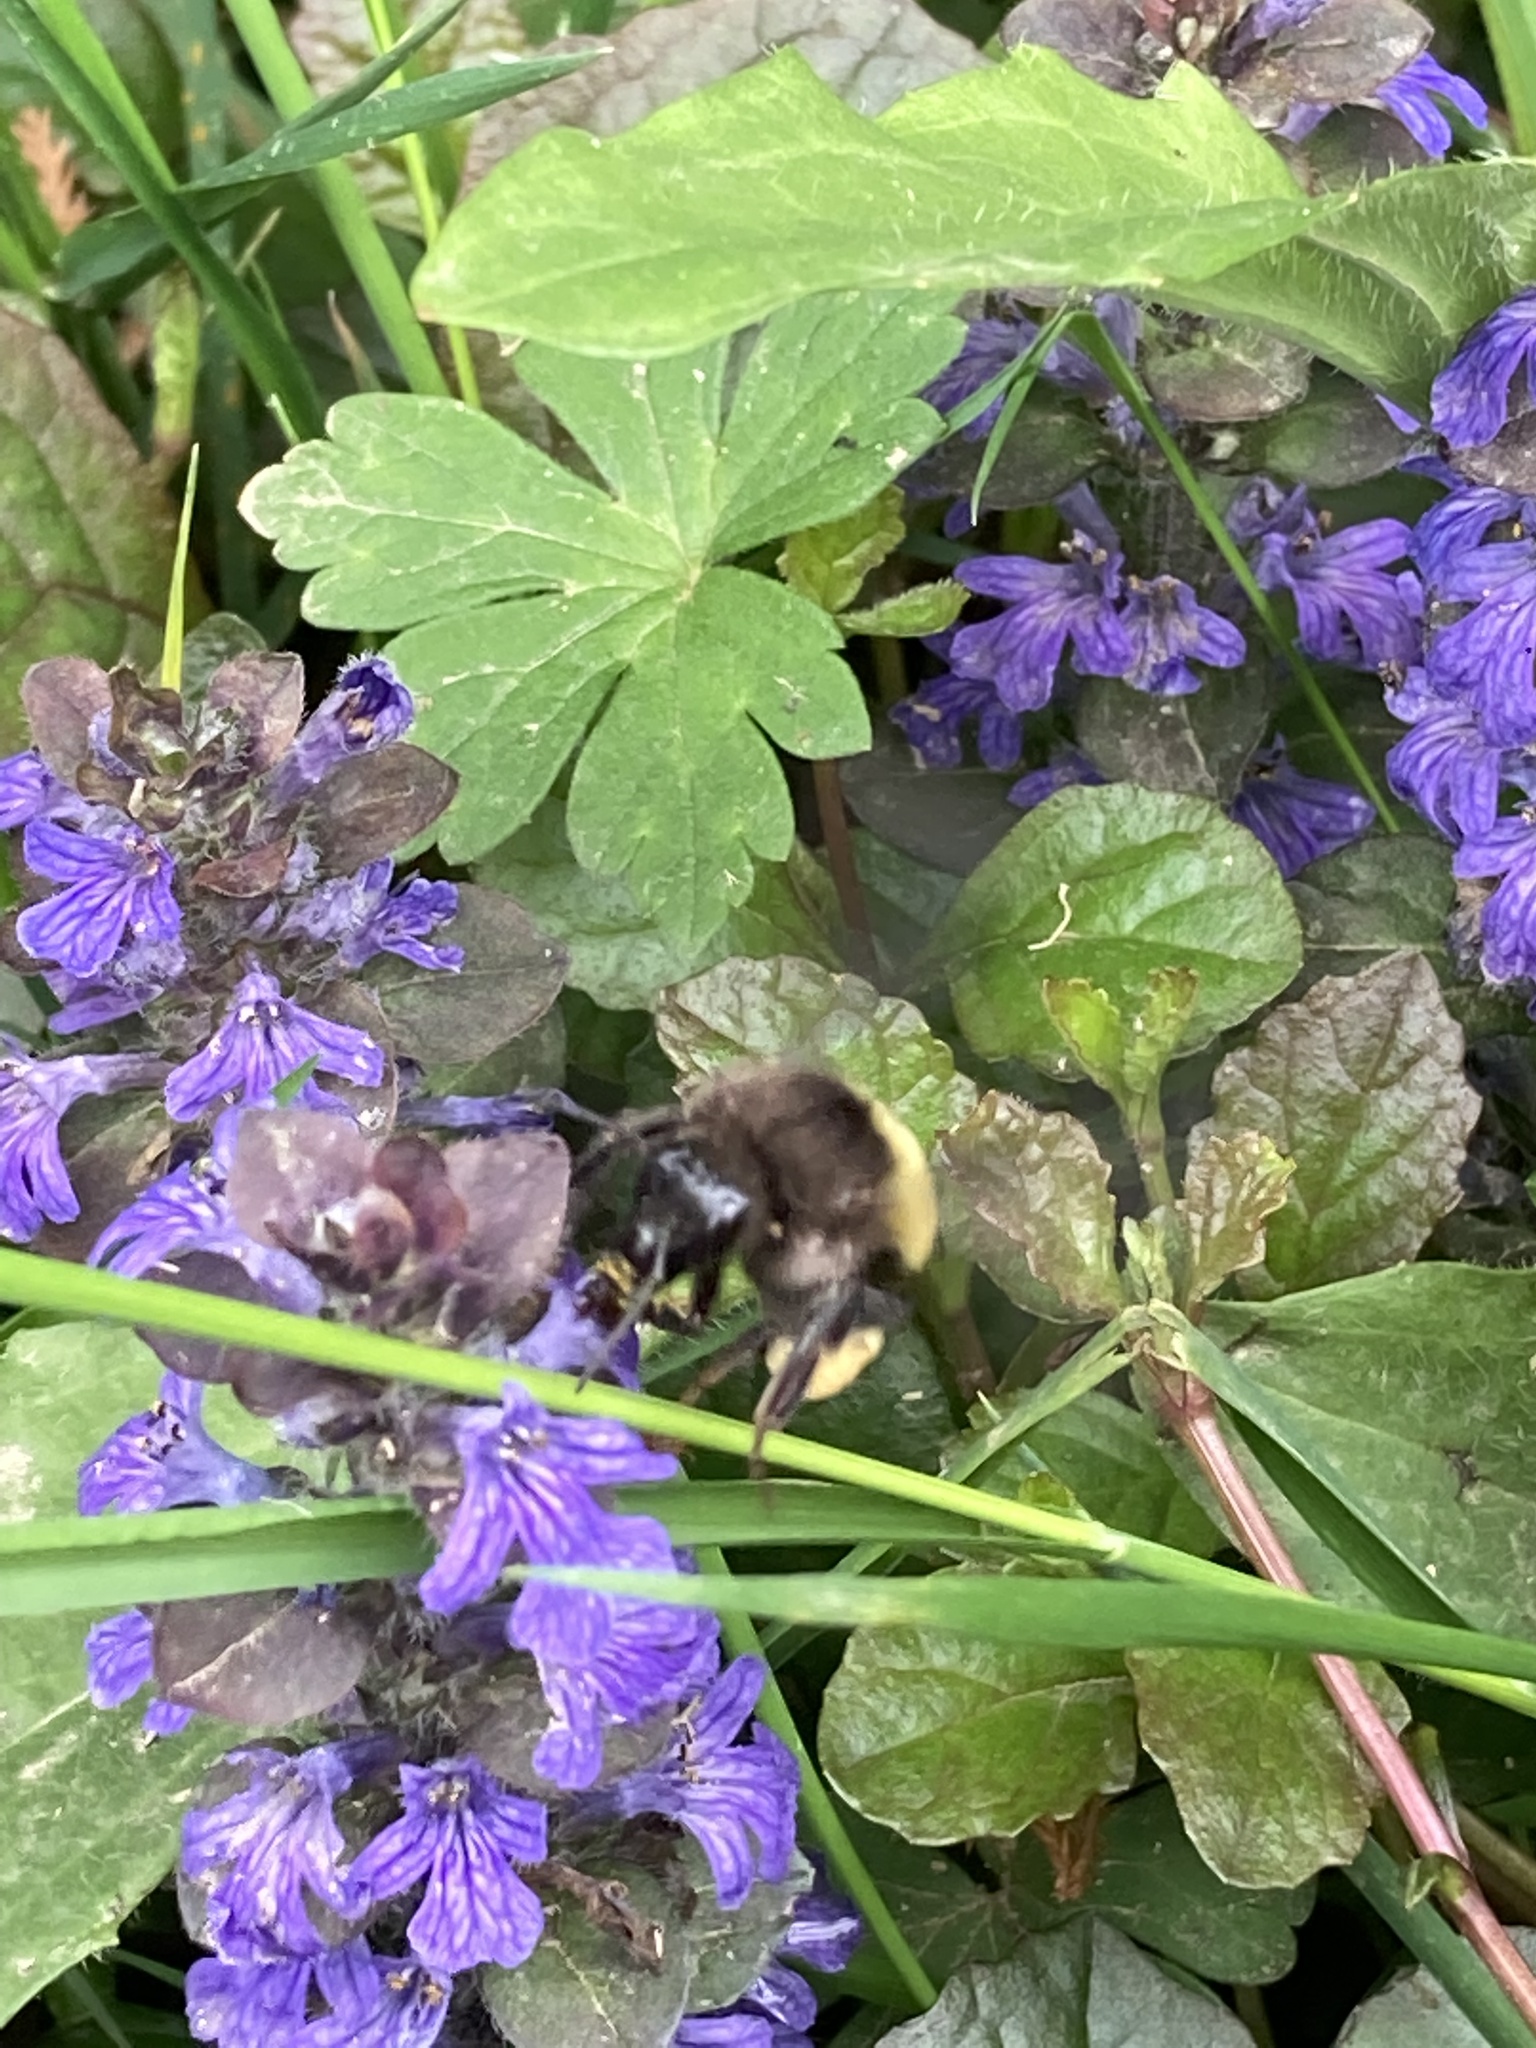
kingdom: Animalia
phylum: Arthropoda
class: Insecta
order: Hymenoptera
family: Apidae
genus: Bombus
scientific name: Bombus haemorrhoidalis
